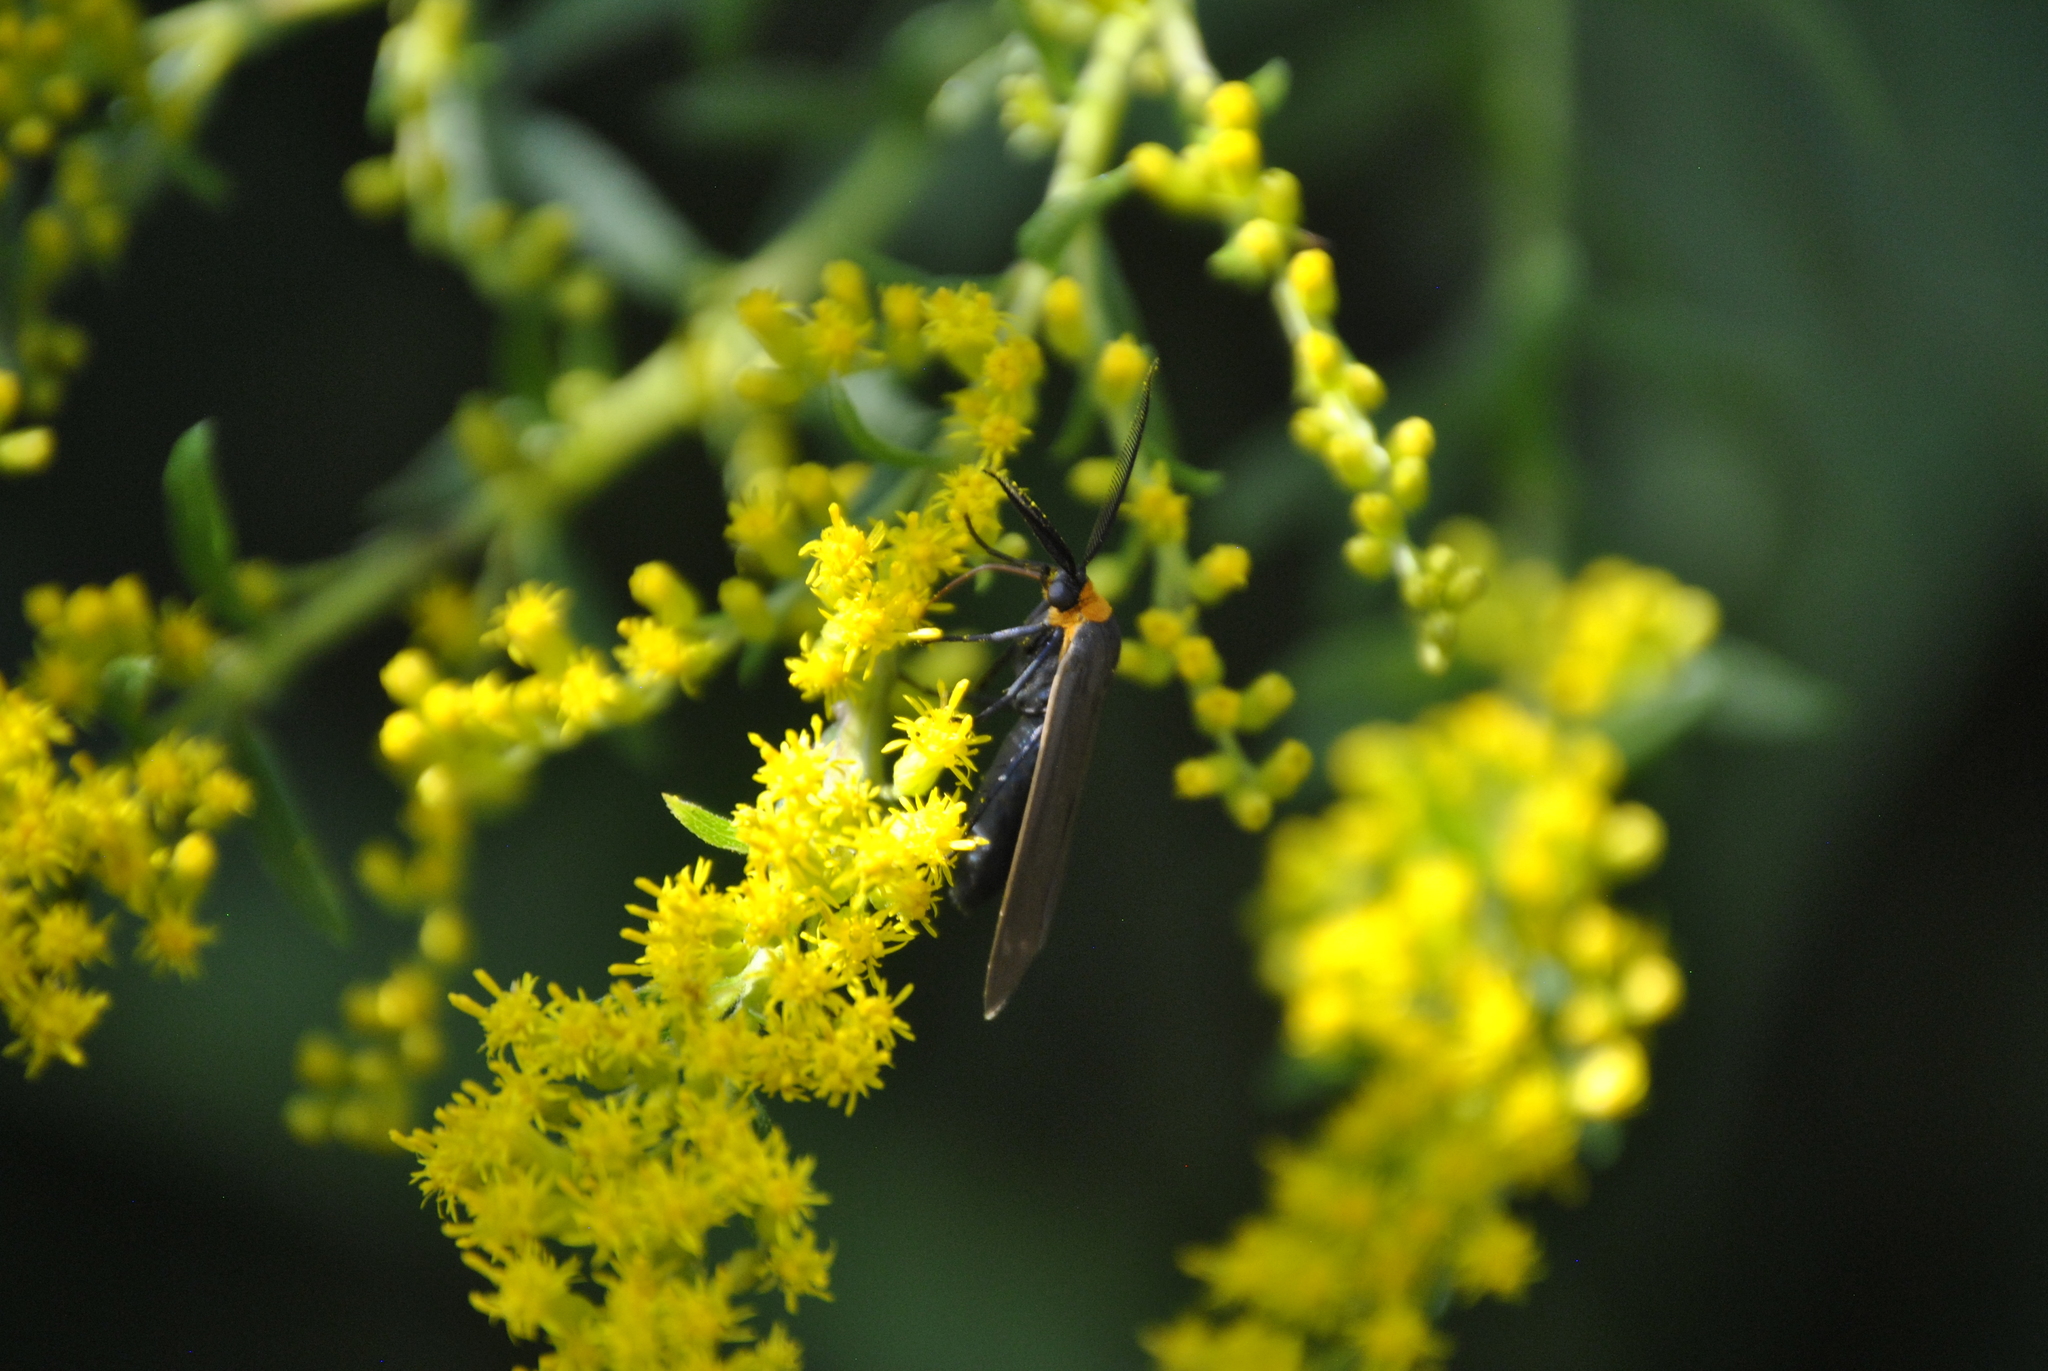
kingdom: Animalia
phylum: Arthropoda
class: Insecta
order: Lepidoptera
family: Erebidae
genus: Cisseps
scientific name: Cisseps fulvicollis
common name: Yellow-collared scape moth
